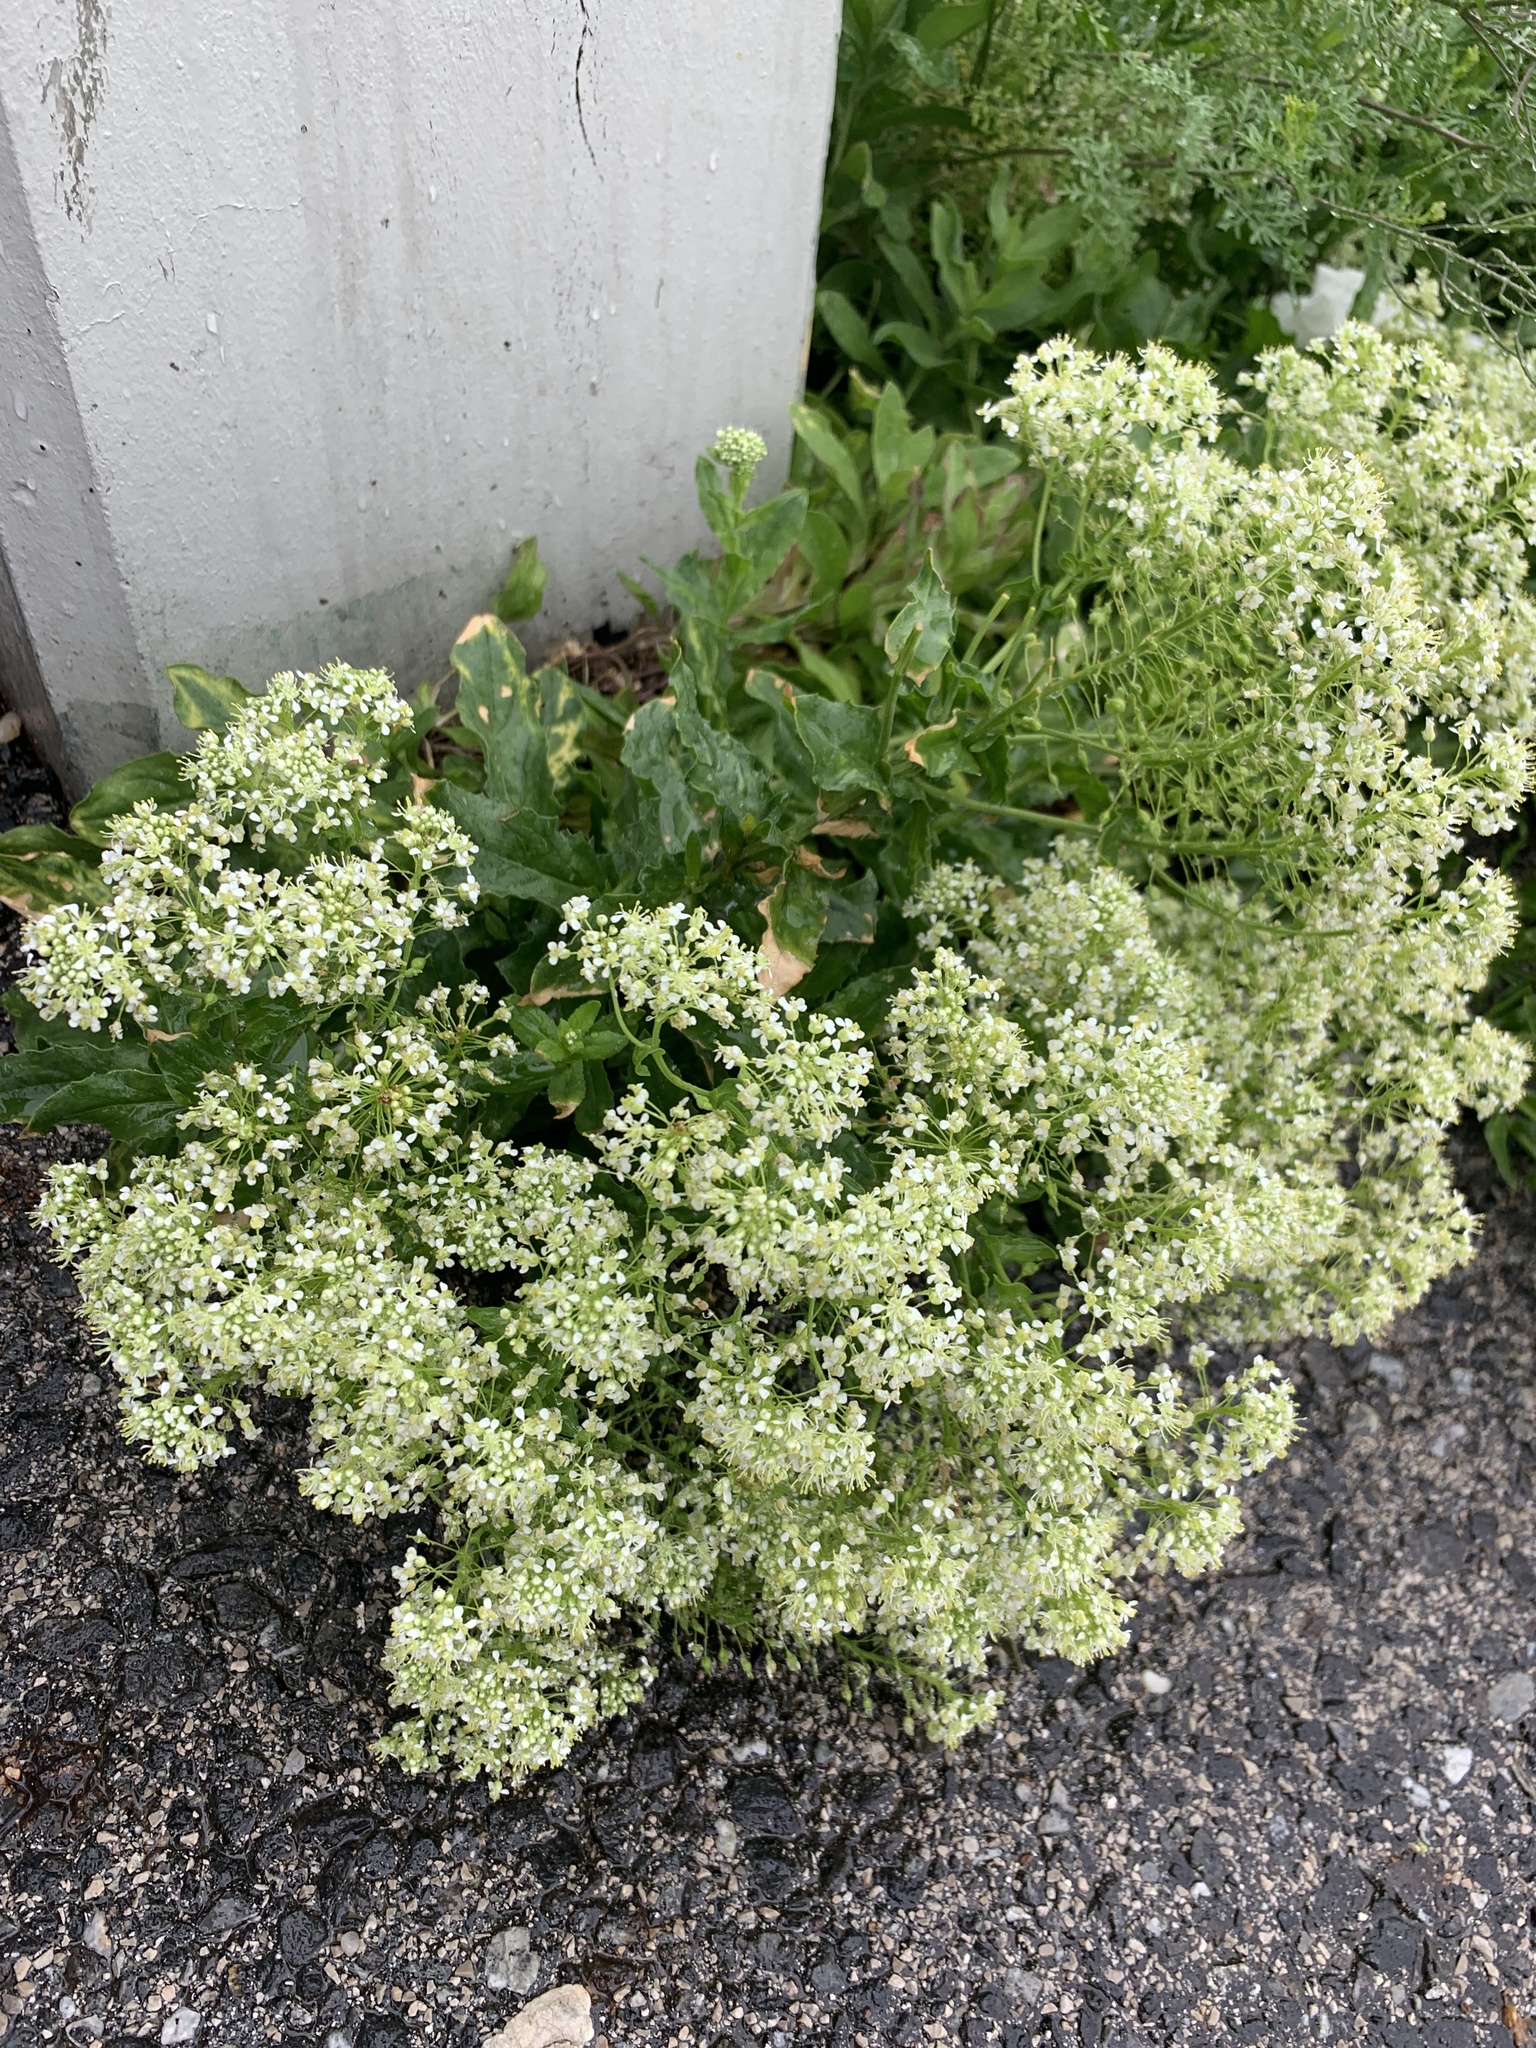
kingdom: Plantae
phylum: Tracheophyta
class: Magnoliopsida
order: Brassicales
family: Brassicaceae
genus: Lepidium
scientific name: Lepidium draba
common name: Hoary cress
